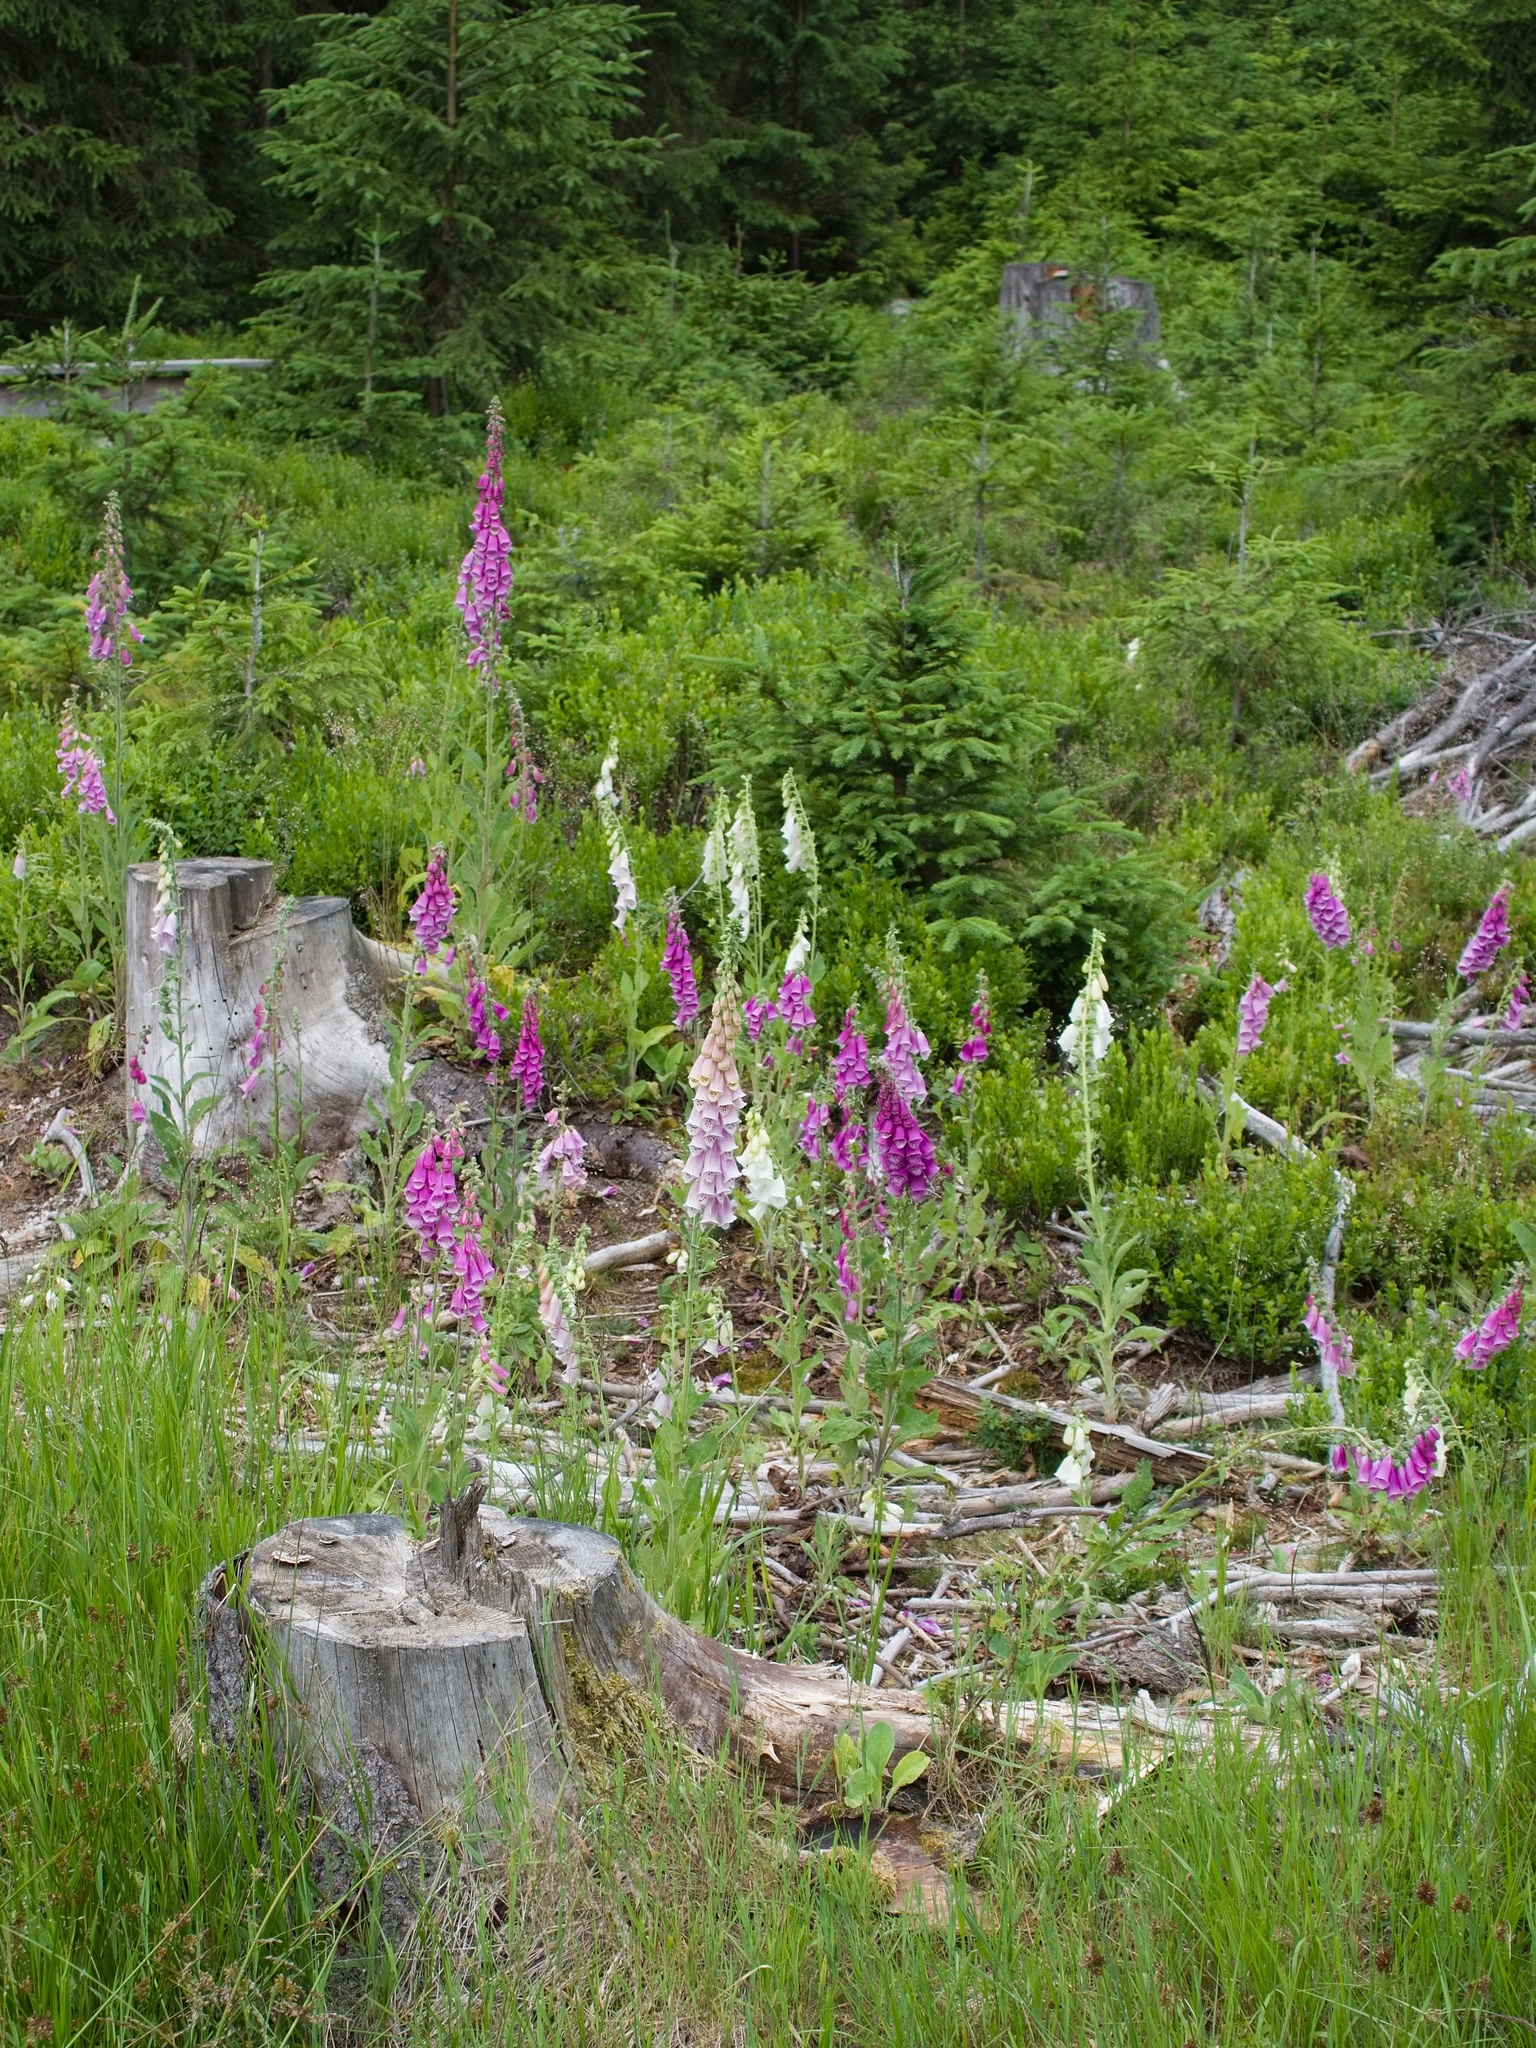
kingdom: Plantae
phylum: Tracheophyta
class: Magnoliopsida
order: Lamiales
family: Plantaginaceae
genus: Digitalis
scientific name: Digitalis purpurea
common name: Foxglove
